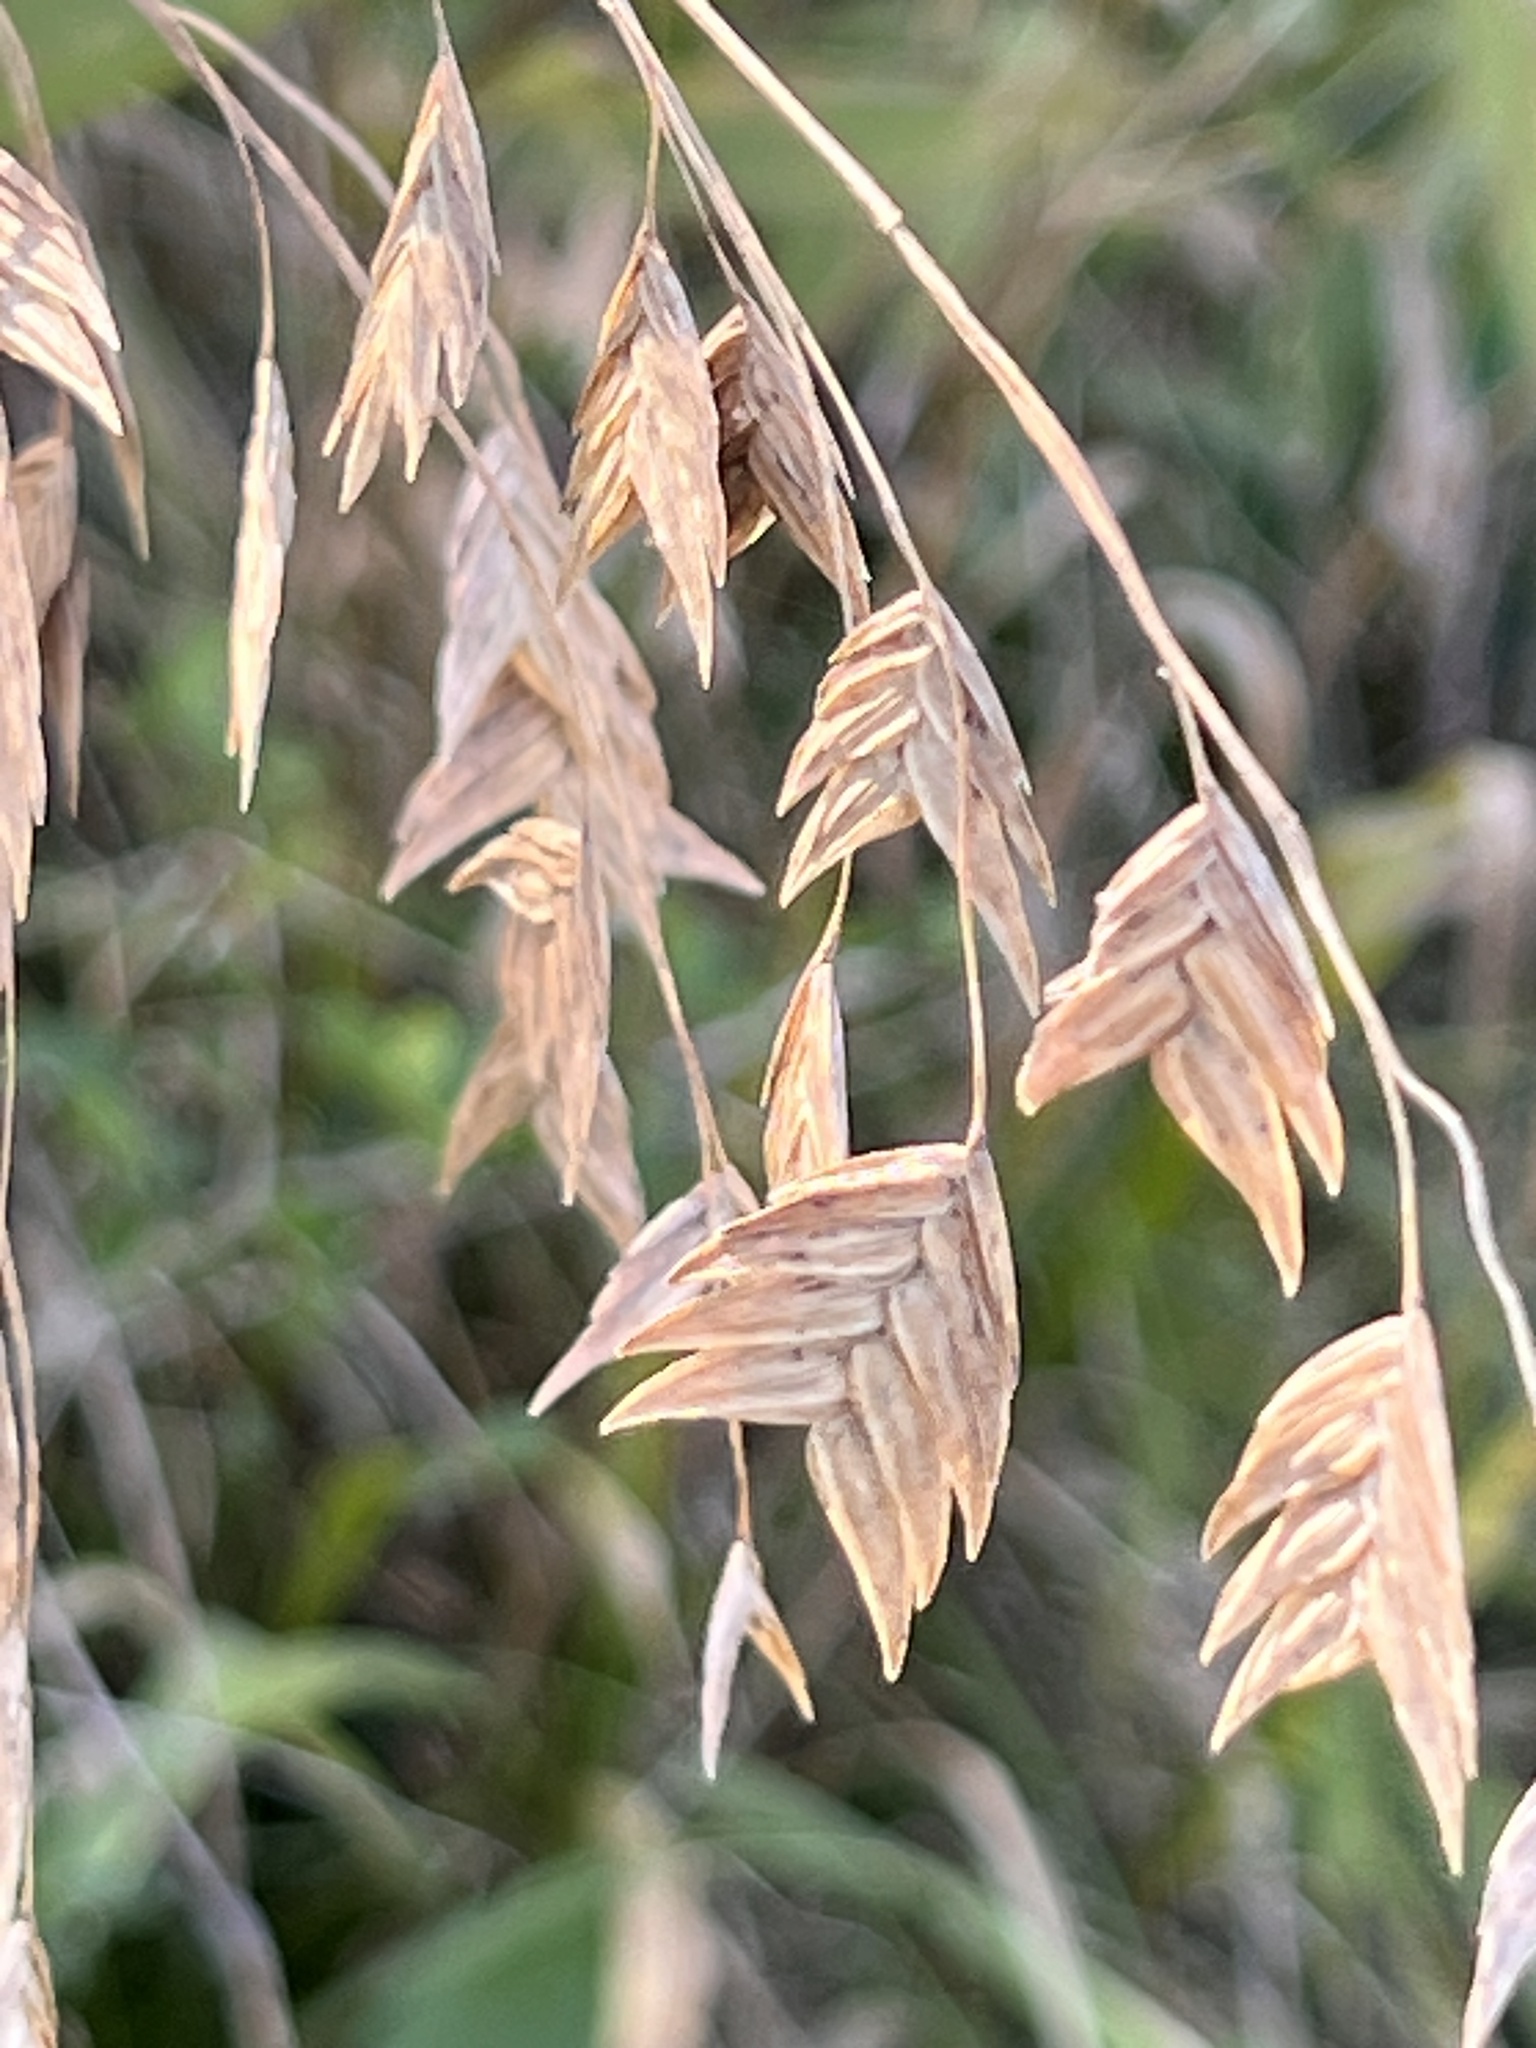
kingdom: Plantae
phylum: Tracheophyta
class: Liliopsida
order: Poales
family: Poaceae
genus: Chasmanthium
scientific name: Chasmanthium latifolium
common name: Broad-leaved chasmanthium
